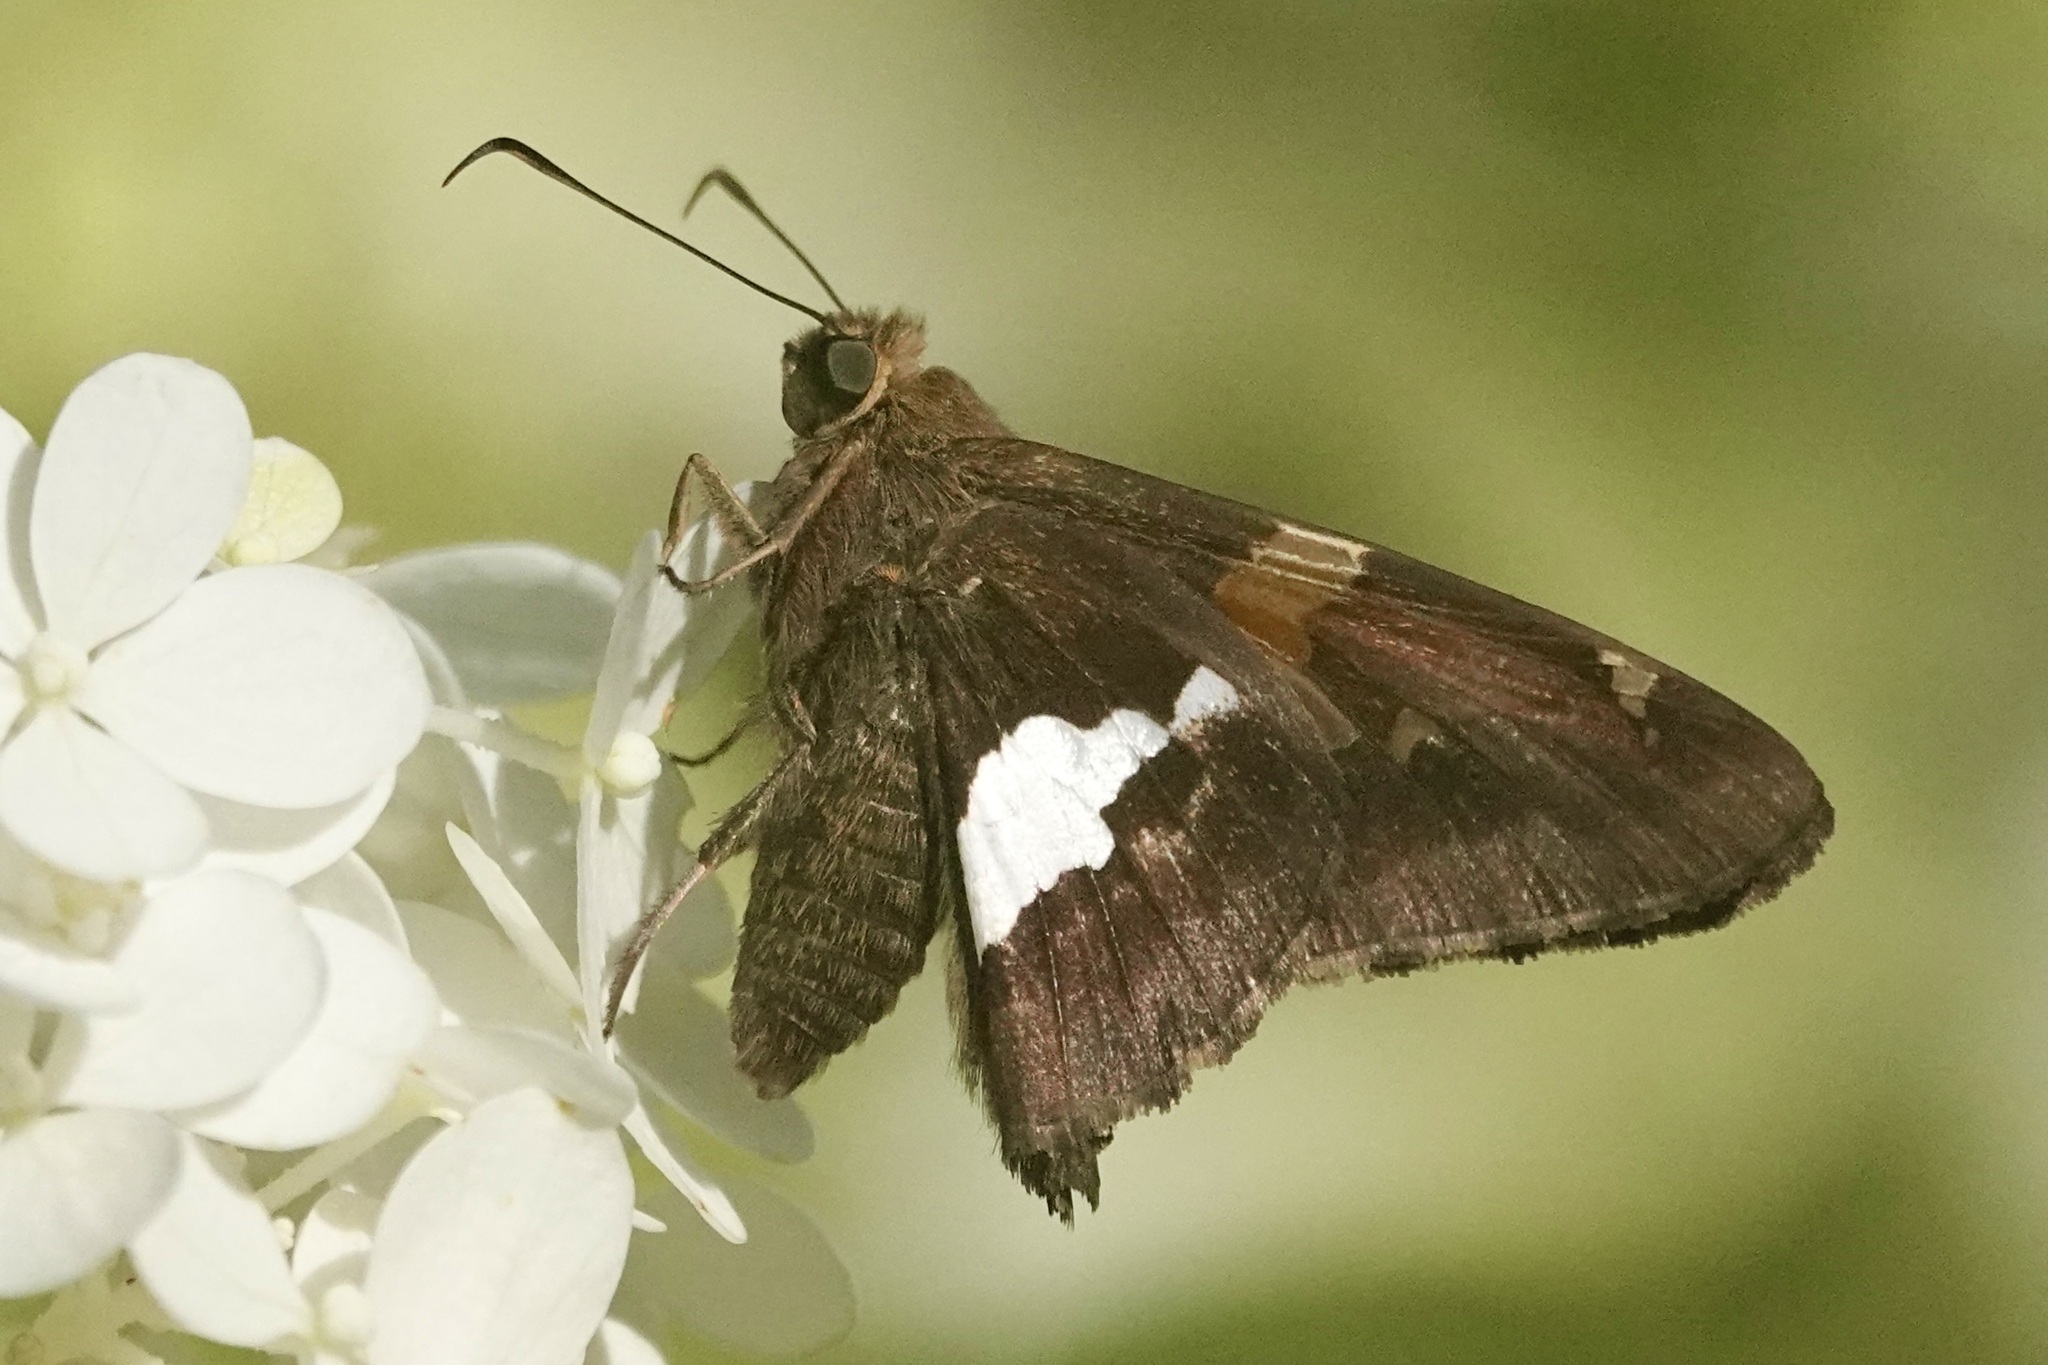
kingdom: Animalia
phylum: Arthropoda
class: Insecta
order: Lepidoptera
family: Hesperiidae
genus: Epargyreus
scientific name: Epargyreus clarus
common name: Silver-spotted skipper
